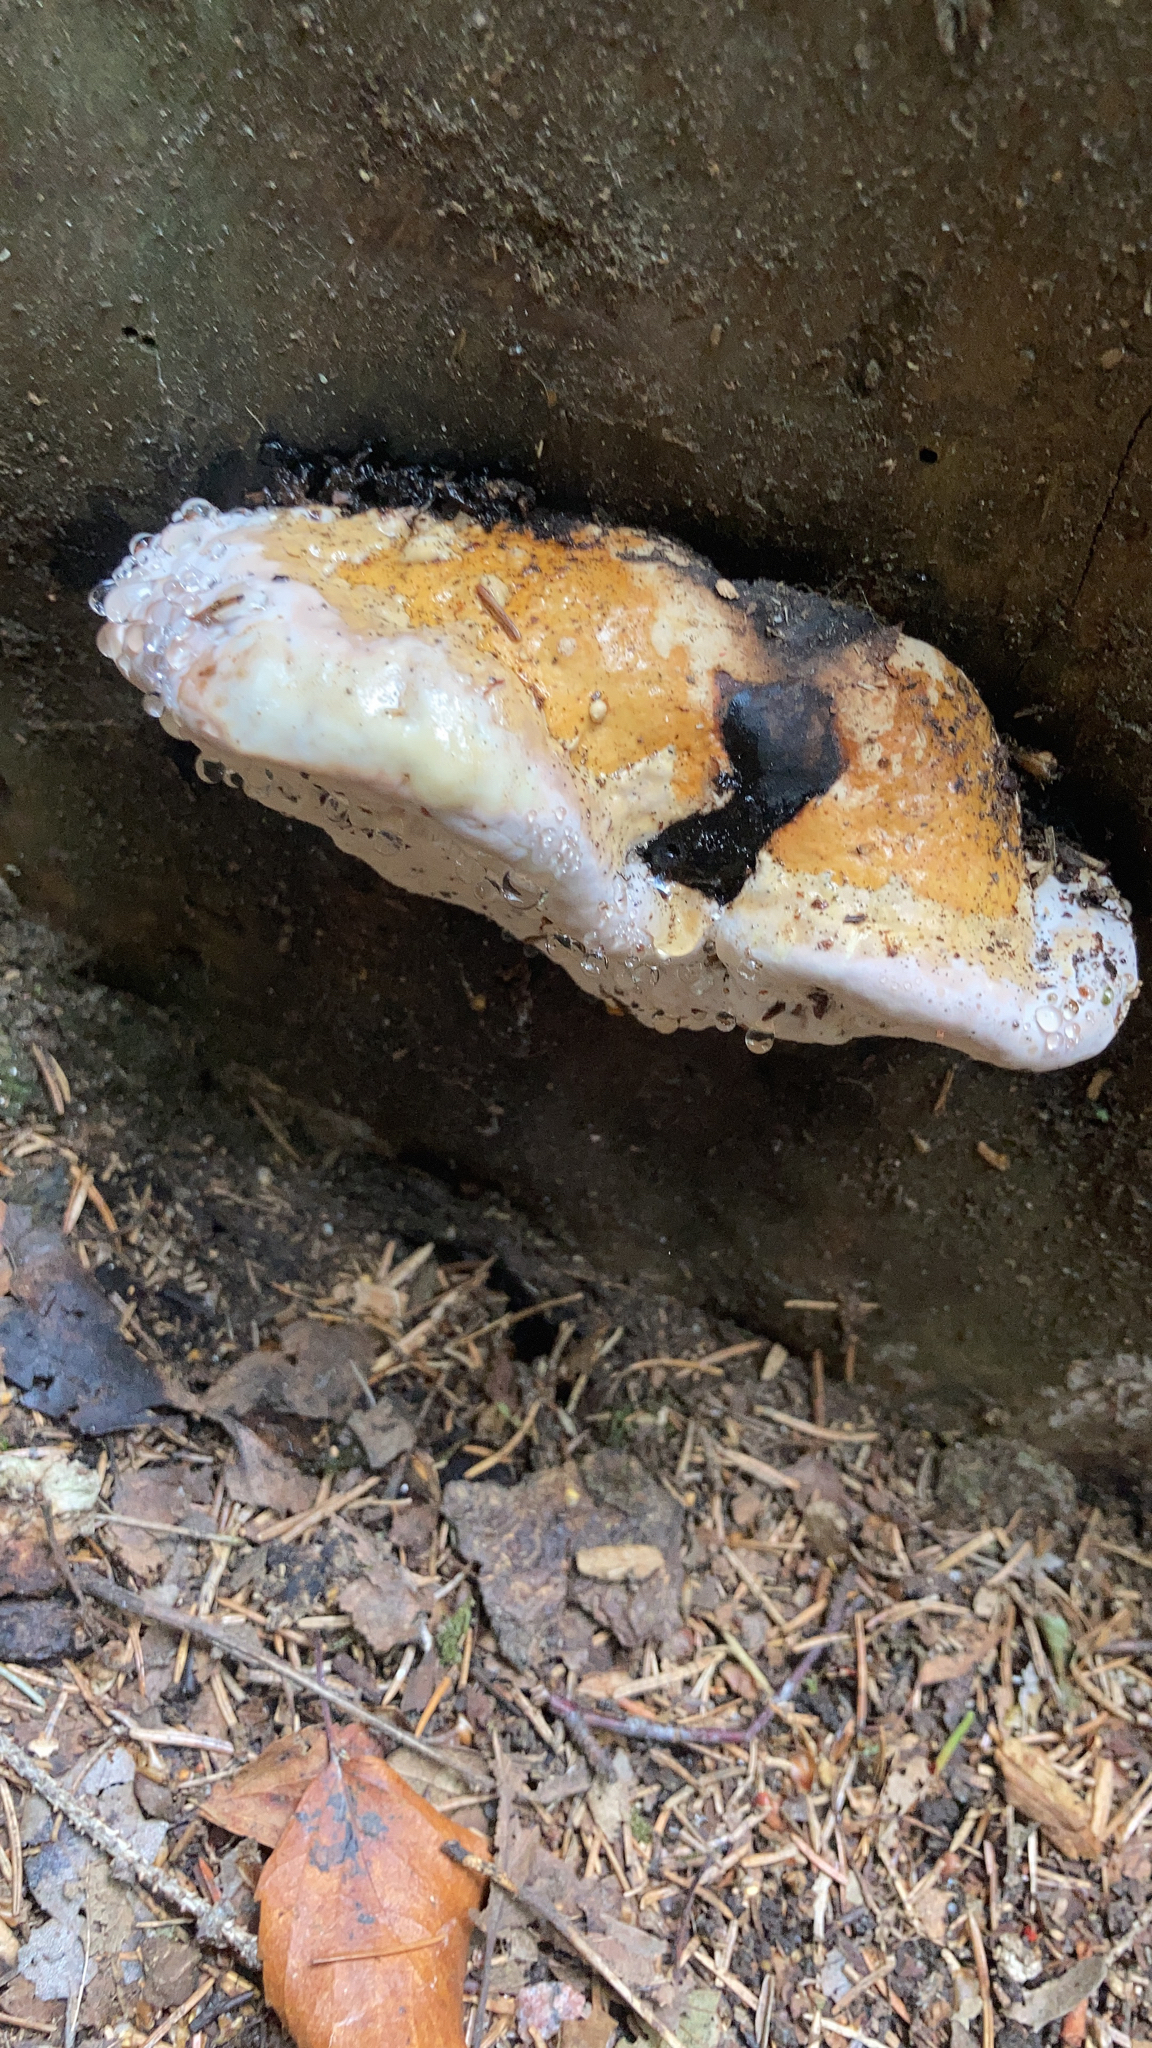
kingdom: Fungi
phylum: Basidiomycota
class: Agaricomycetes
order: Polyporales
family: Fomitopsidaceae
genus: Fomitopsis
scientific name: Fomitopsis pinicola
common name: Red-belted bracket
